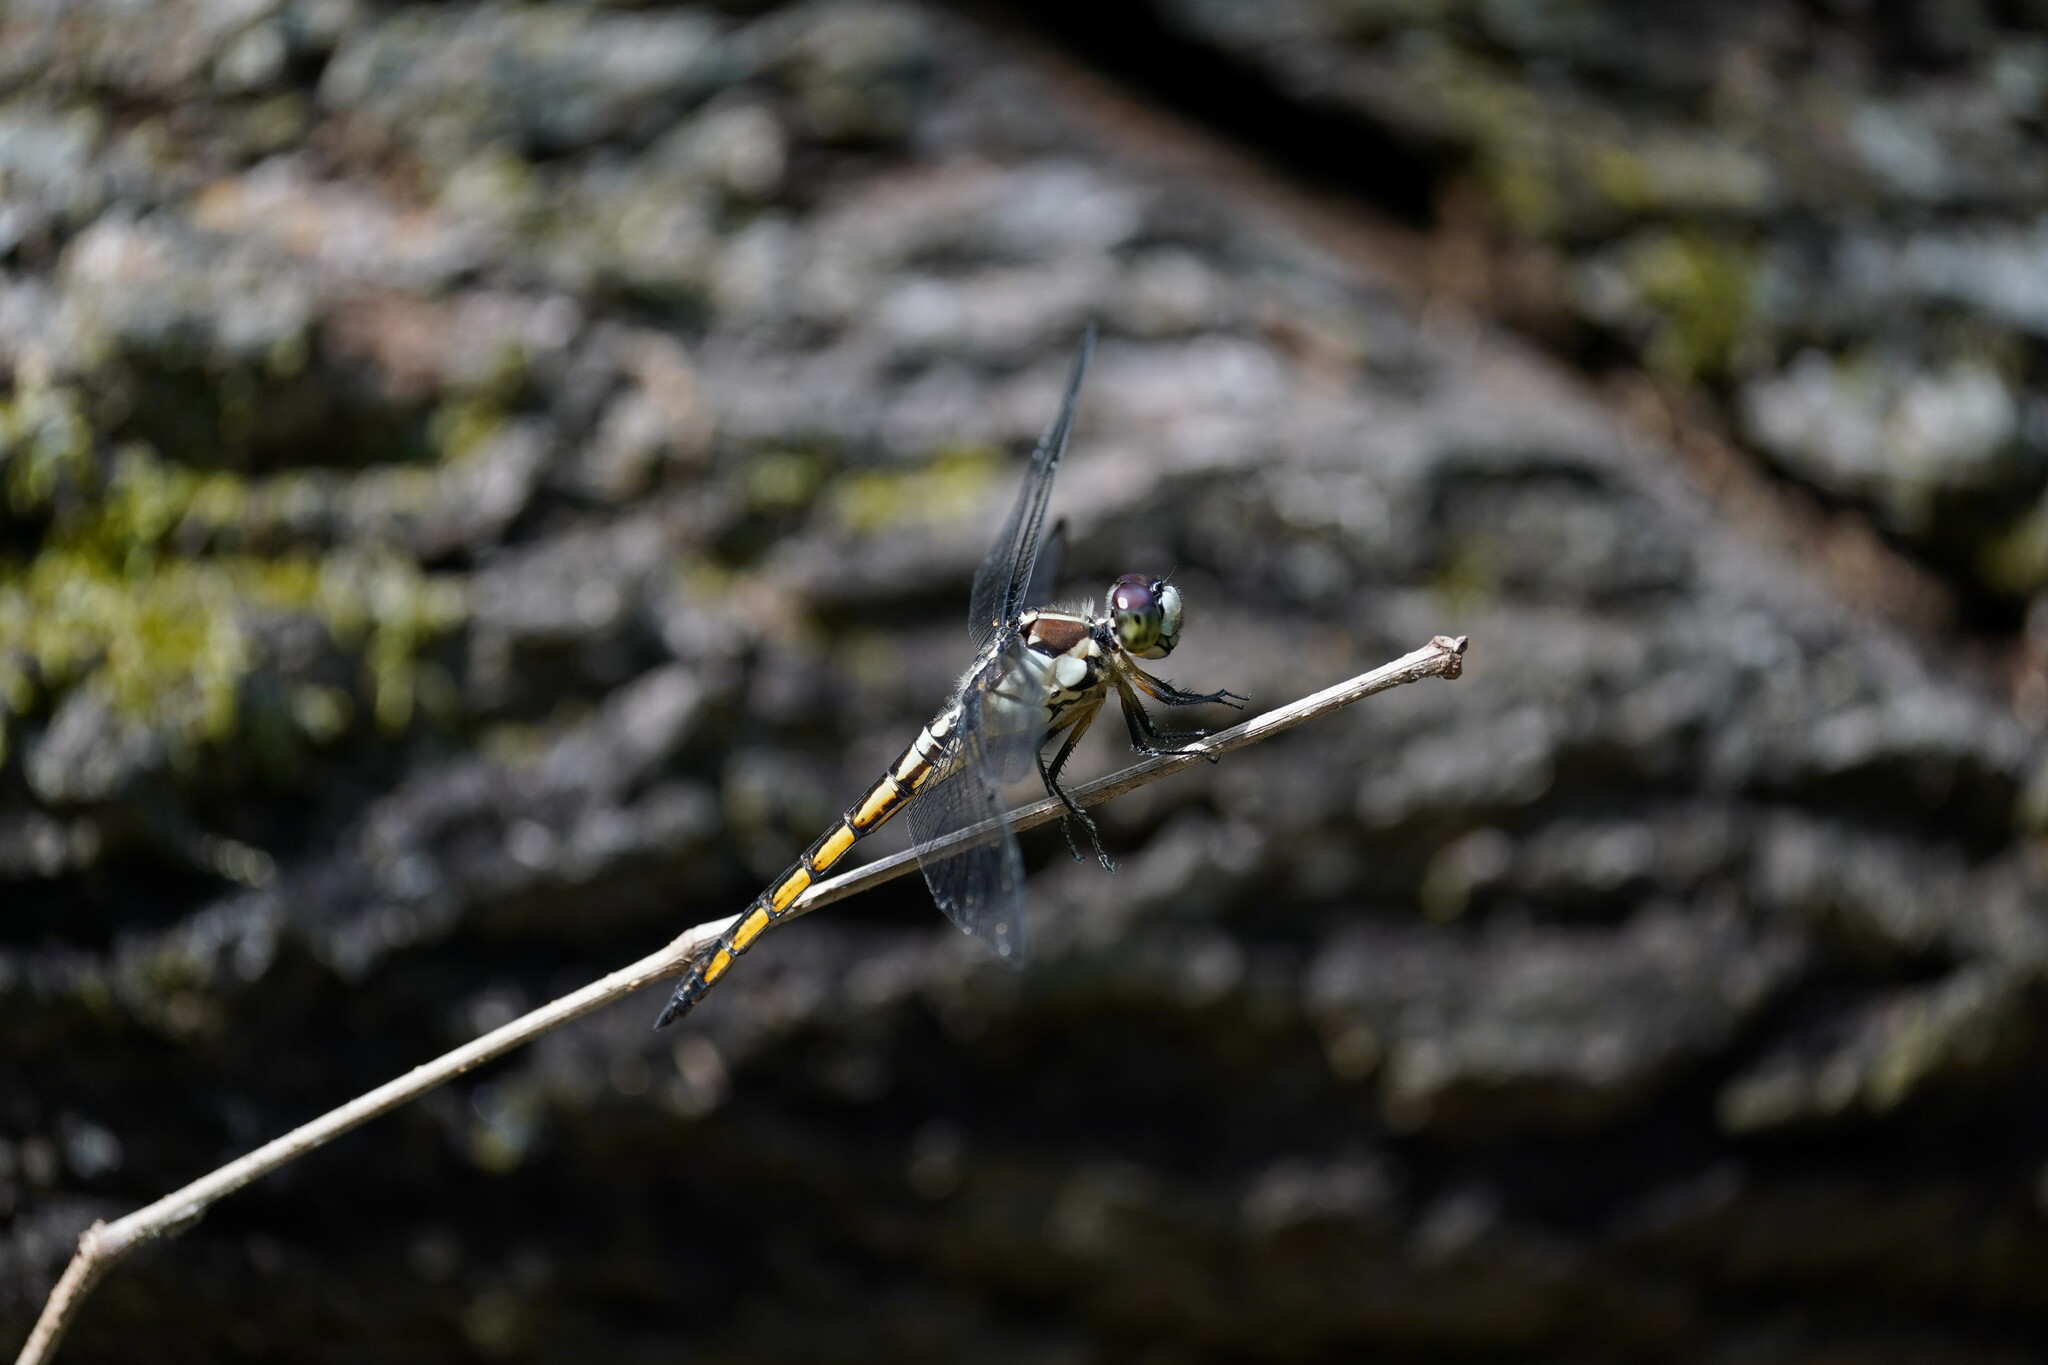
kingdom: Animalia
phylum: Arthropoda
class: Insecta
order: Odonata
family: Libellulidae
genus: Libellula
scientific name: Libellula vibrans
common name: Great blue skimmer
